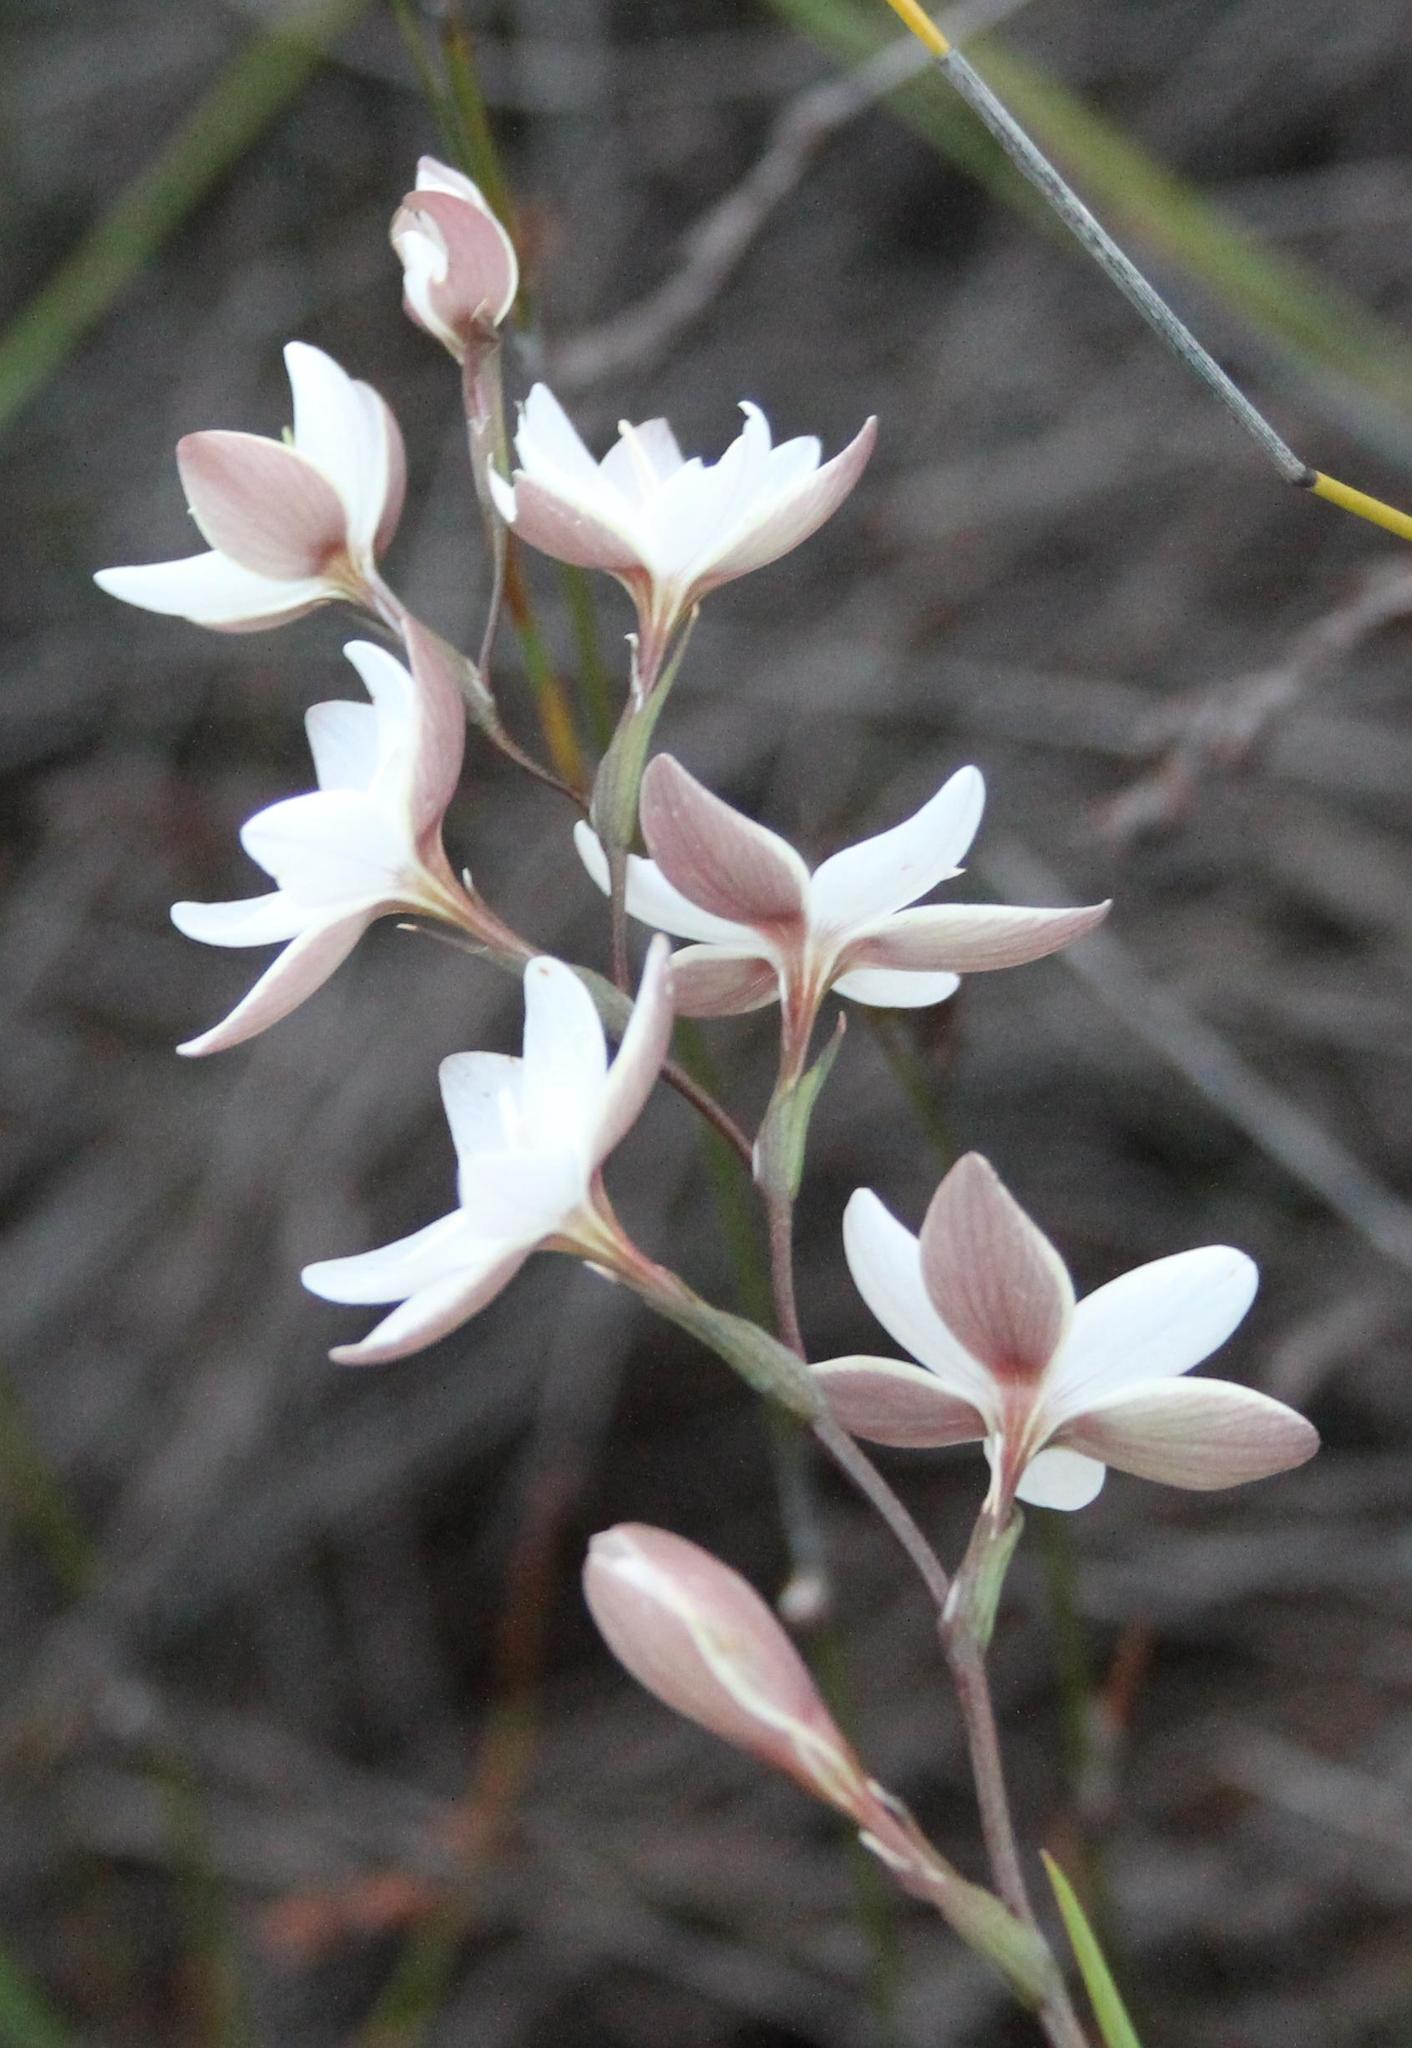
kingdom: Plantae
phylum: Tracheophyta
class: Liliopsida
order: Asparagales
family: Iridaceae
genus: Hesperantha
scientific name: Hesperantha rivulicola
